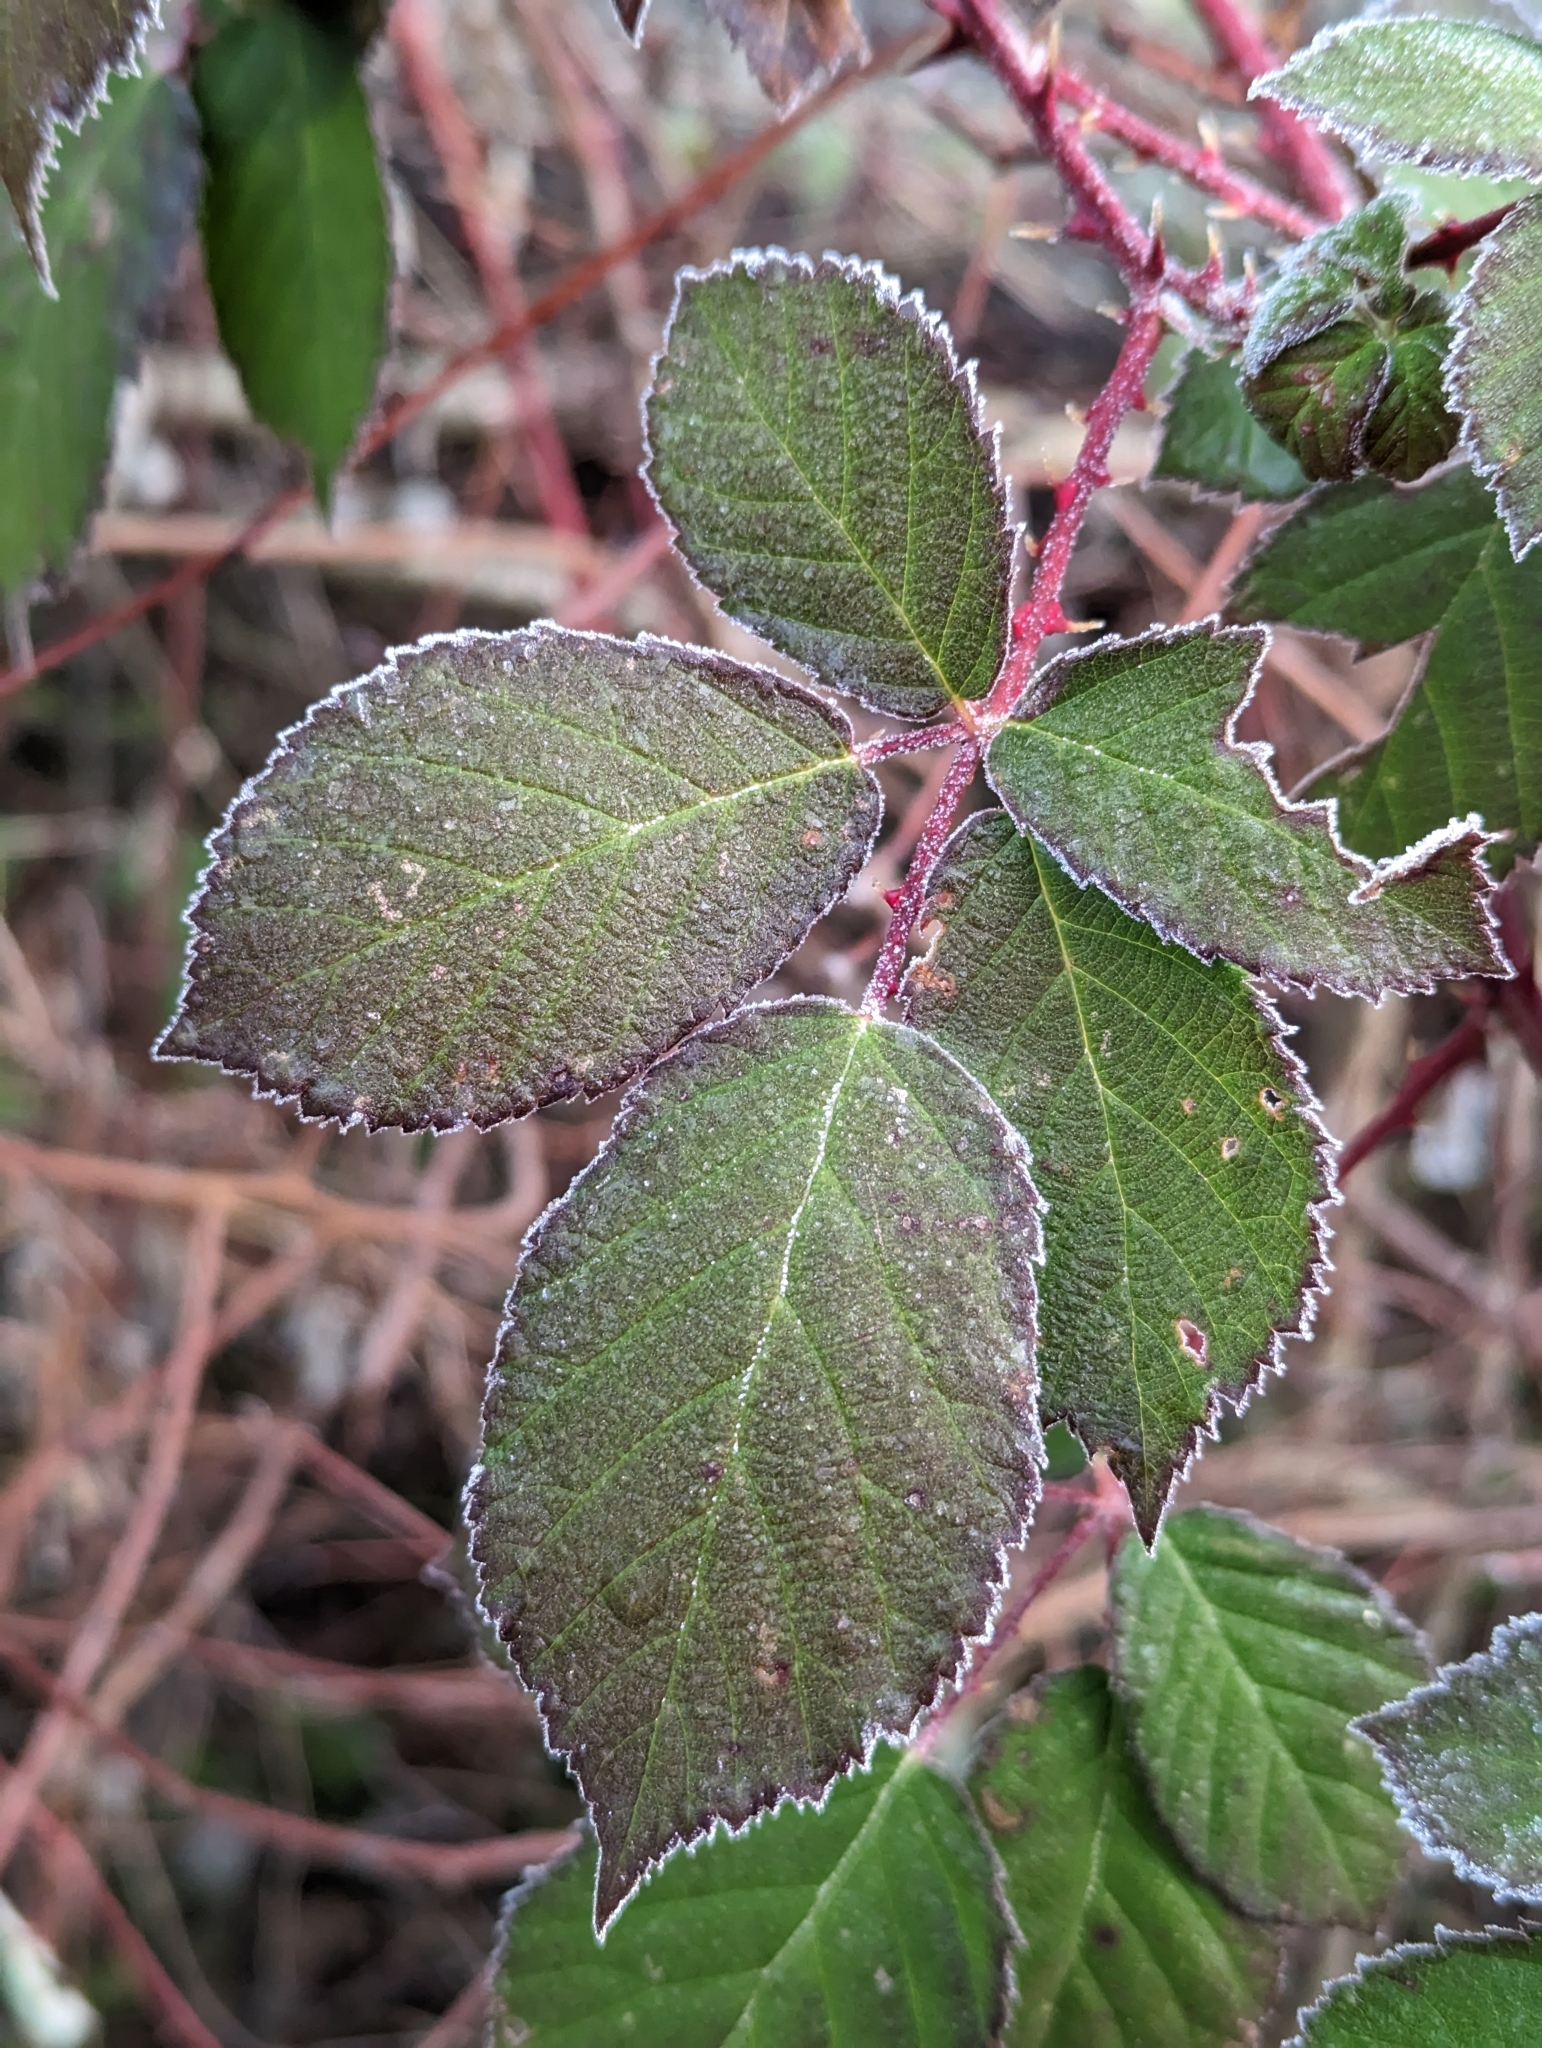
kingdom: Plantae
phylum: Tracheophyta
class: Magnoliopsida
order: Rosales
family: Rosaceae
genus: Rubus
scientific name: Rubus bifrons
